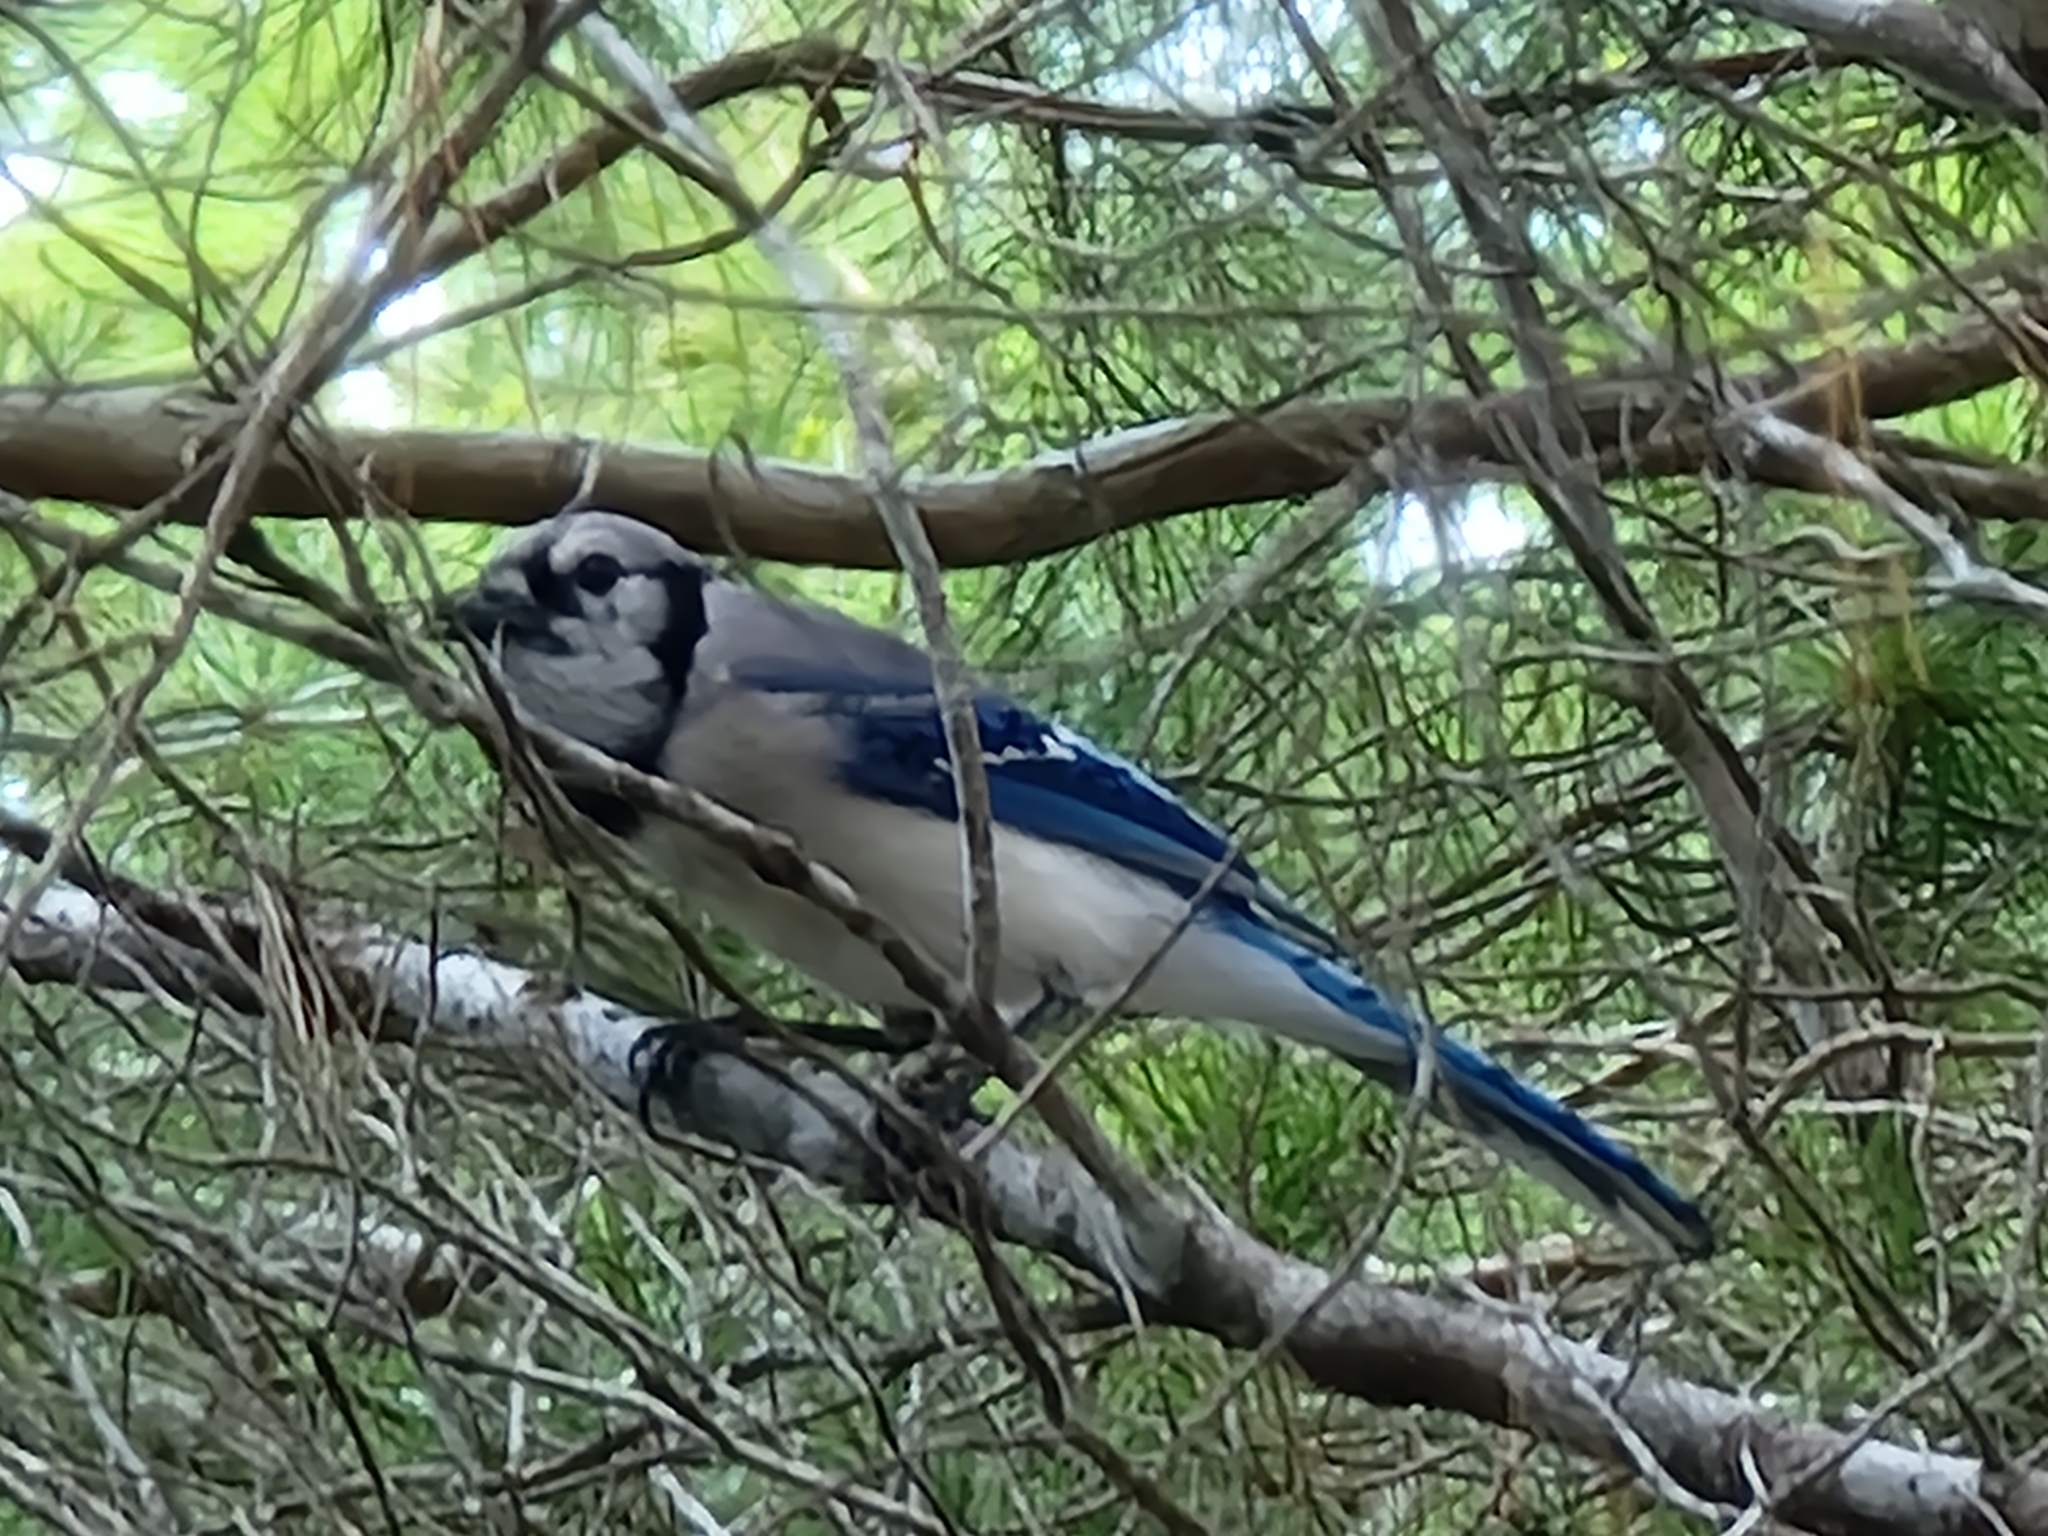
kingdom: Animalia
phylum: Chordata
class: Aves
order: Passeriformes
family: Corvidae
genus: Cyanocitta
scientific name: Cyanocitta cristata
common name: Blue jay
